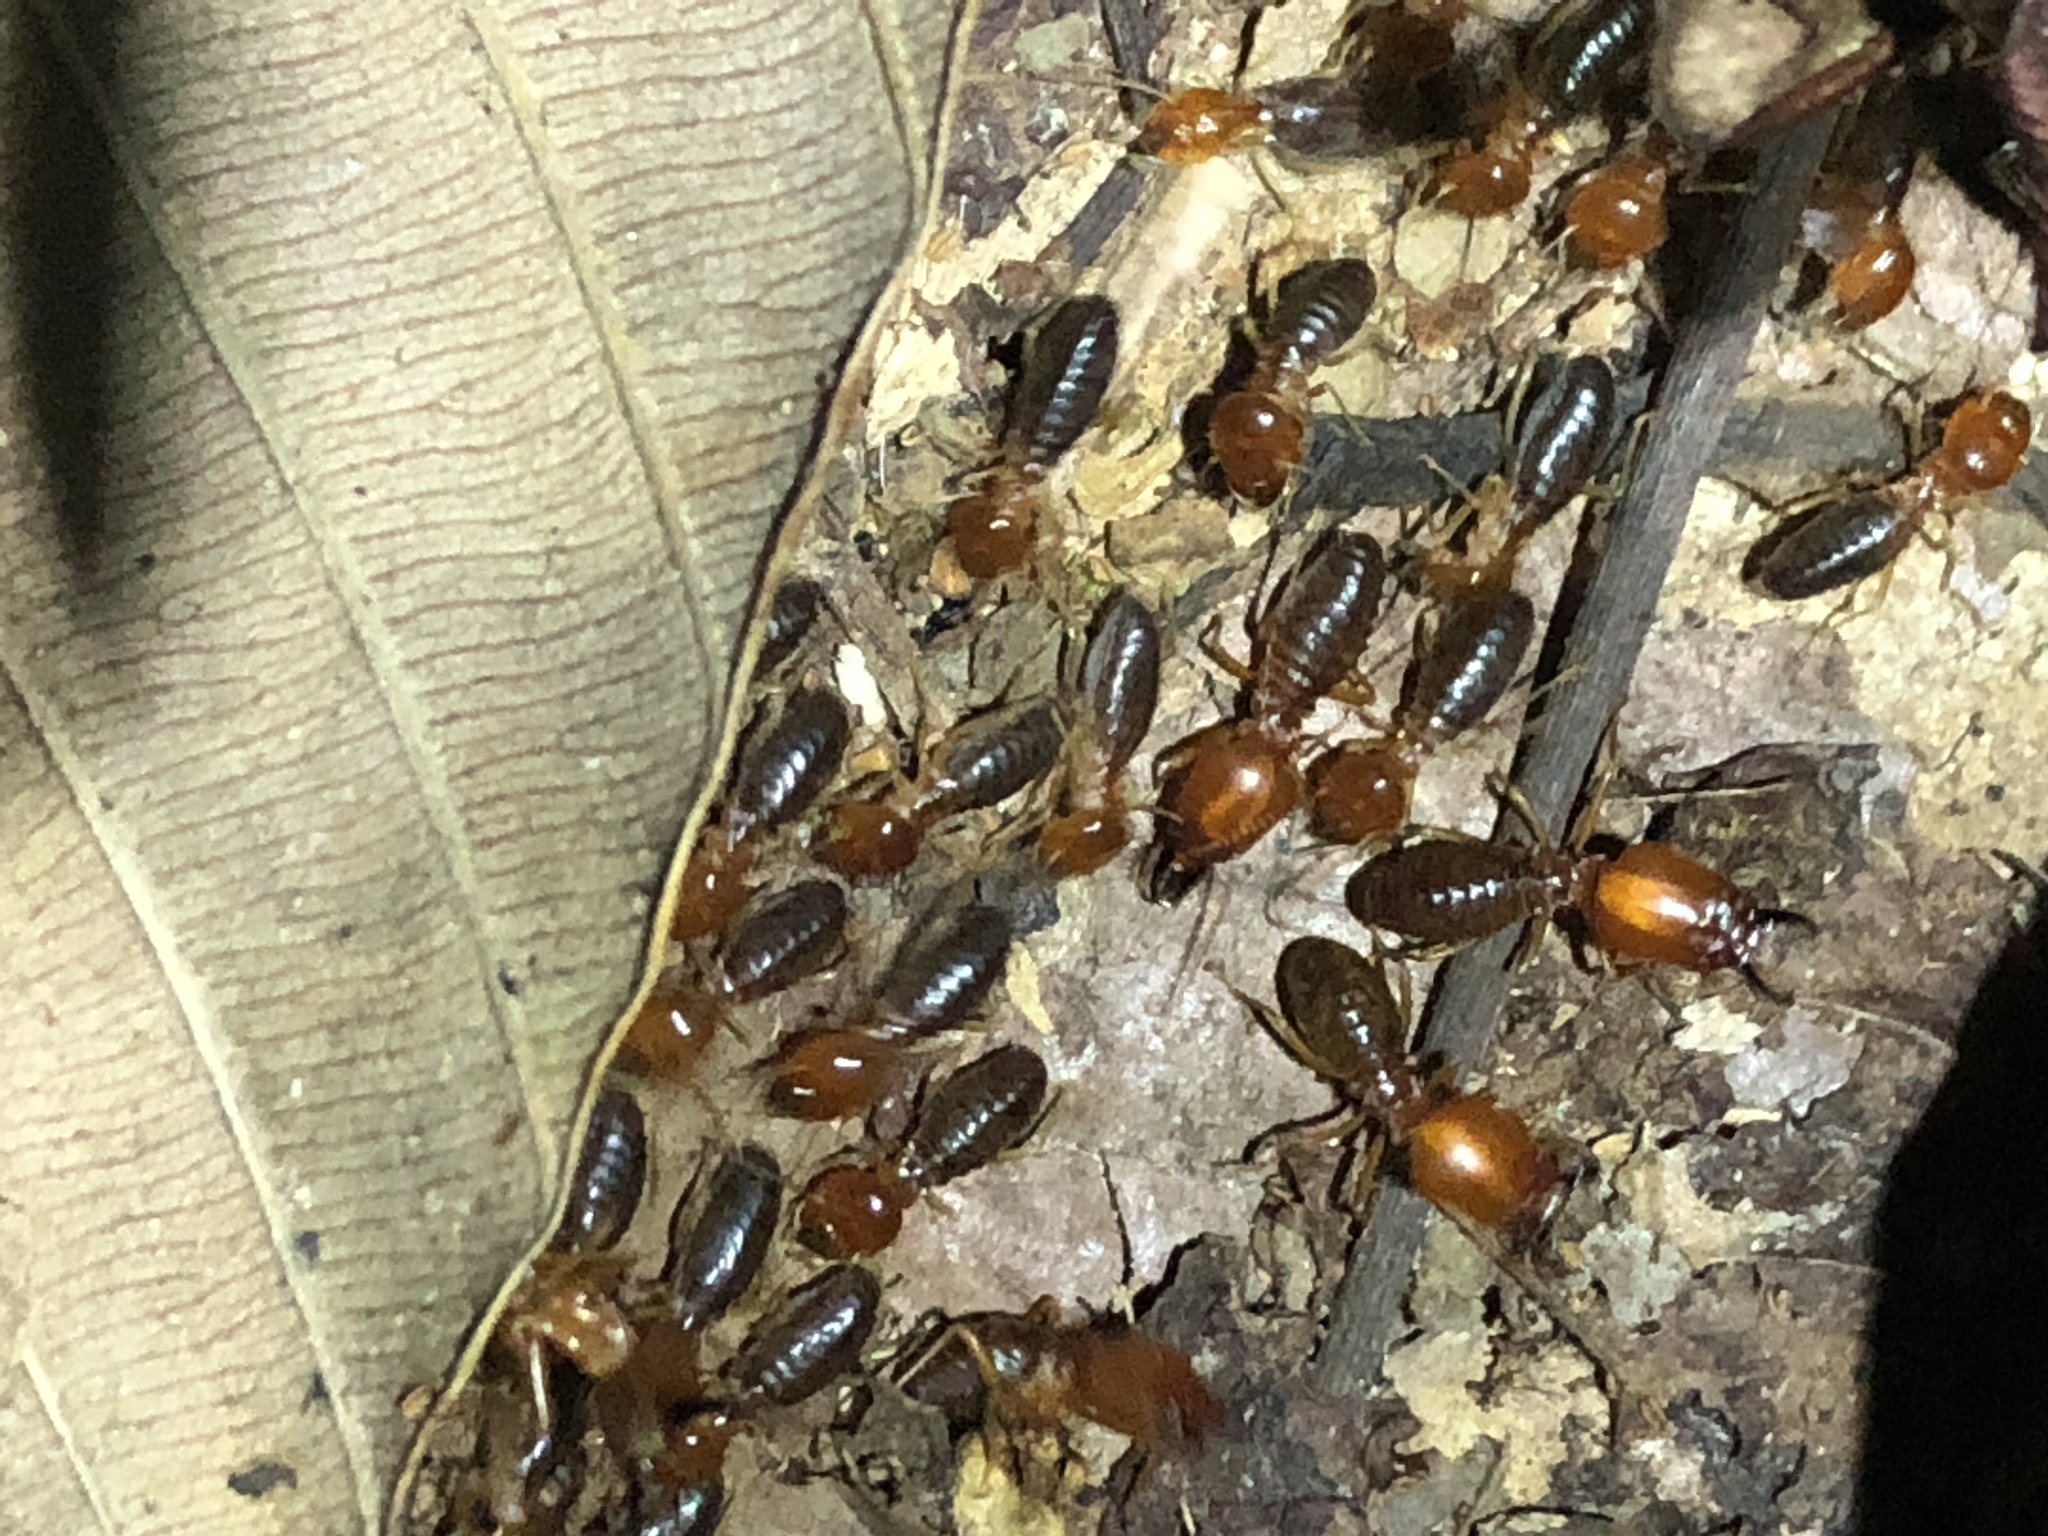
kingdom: Animalia
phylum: Arthropoda
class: Insecta
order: Blattodea
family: Termitidae
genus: Syntermes
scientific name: Syntermes molestus
